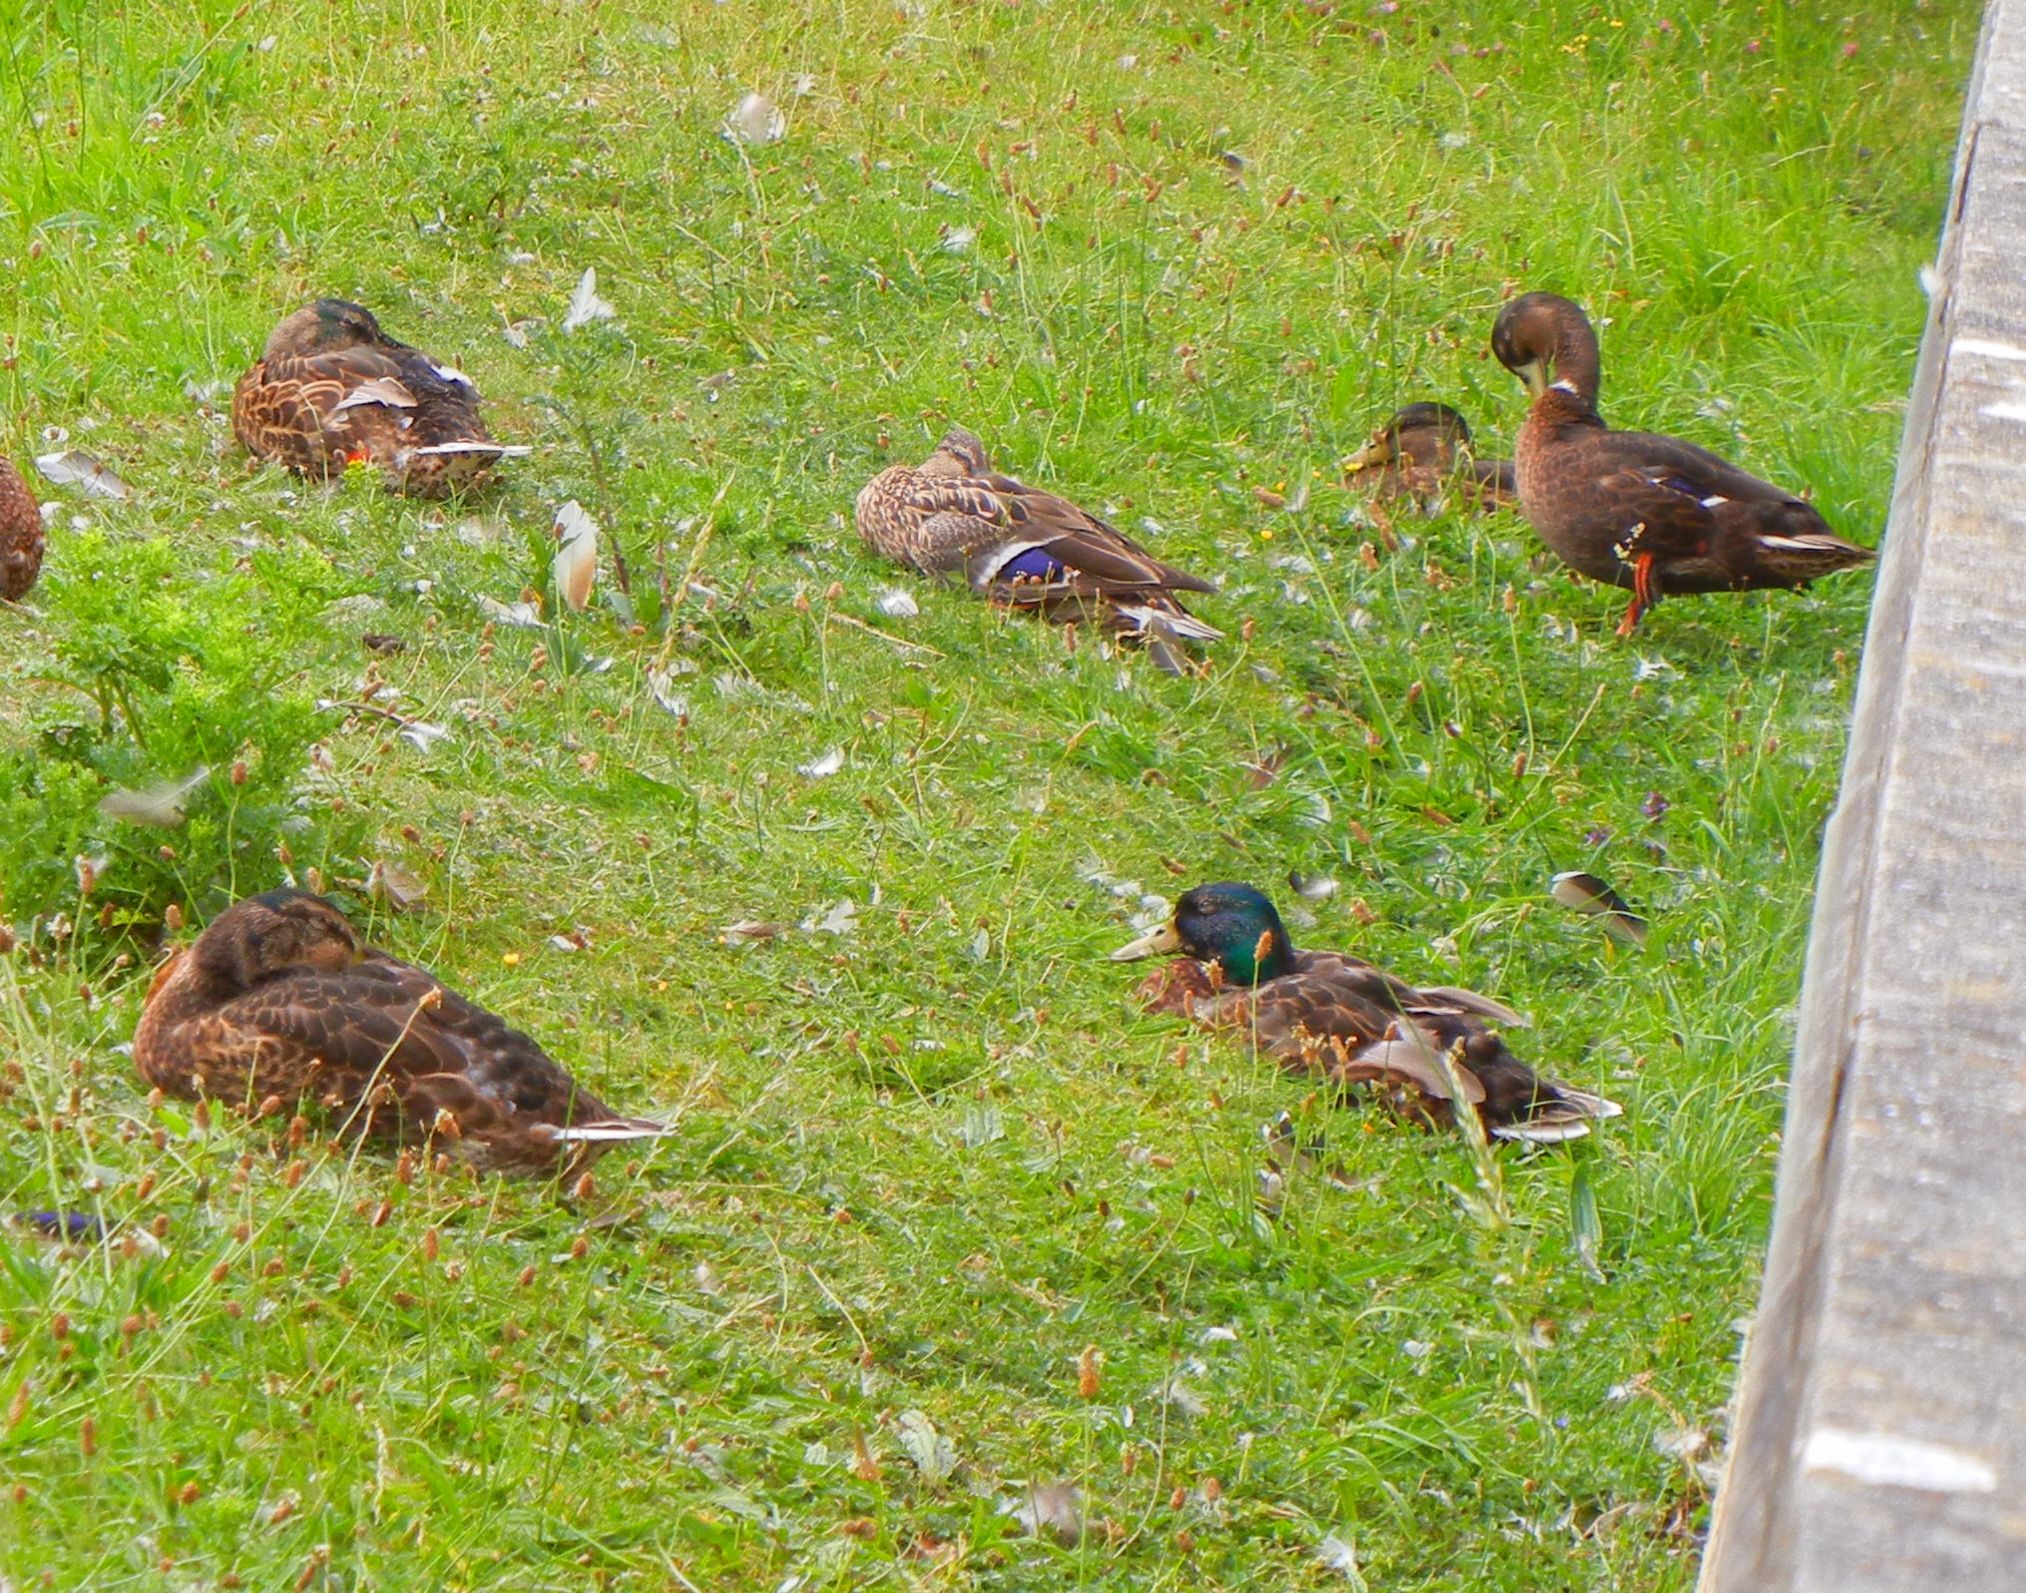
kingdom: Animalia
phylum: Chordata
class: Aves
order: Anseriformes
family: Anatidae
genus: Anas
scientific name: Anas platyrhynchos
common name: Mallard
